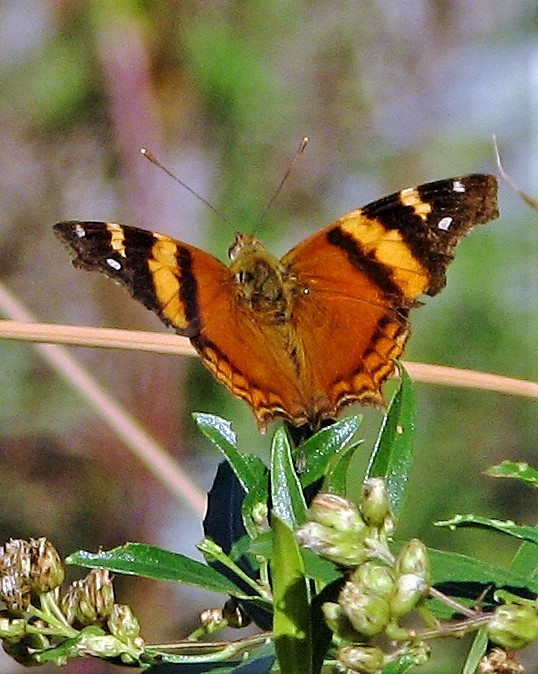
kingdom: Animalia
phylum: Arthropoda
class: Insecta
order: Lepidoptera
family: Nymphalidae
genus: Hypanartia
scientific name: Hypanartia bella
